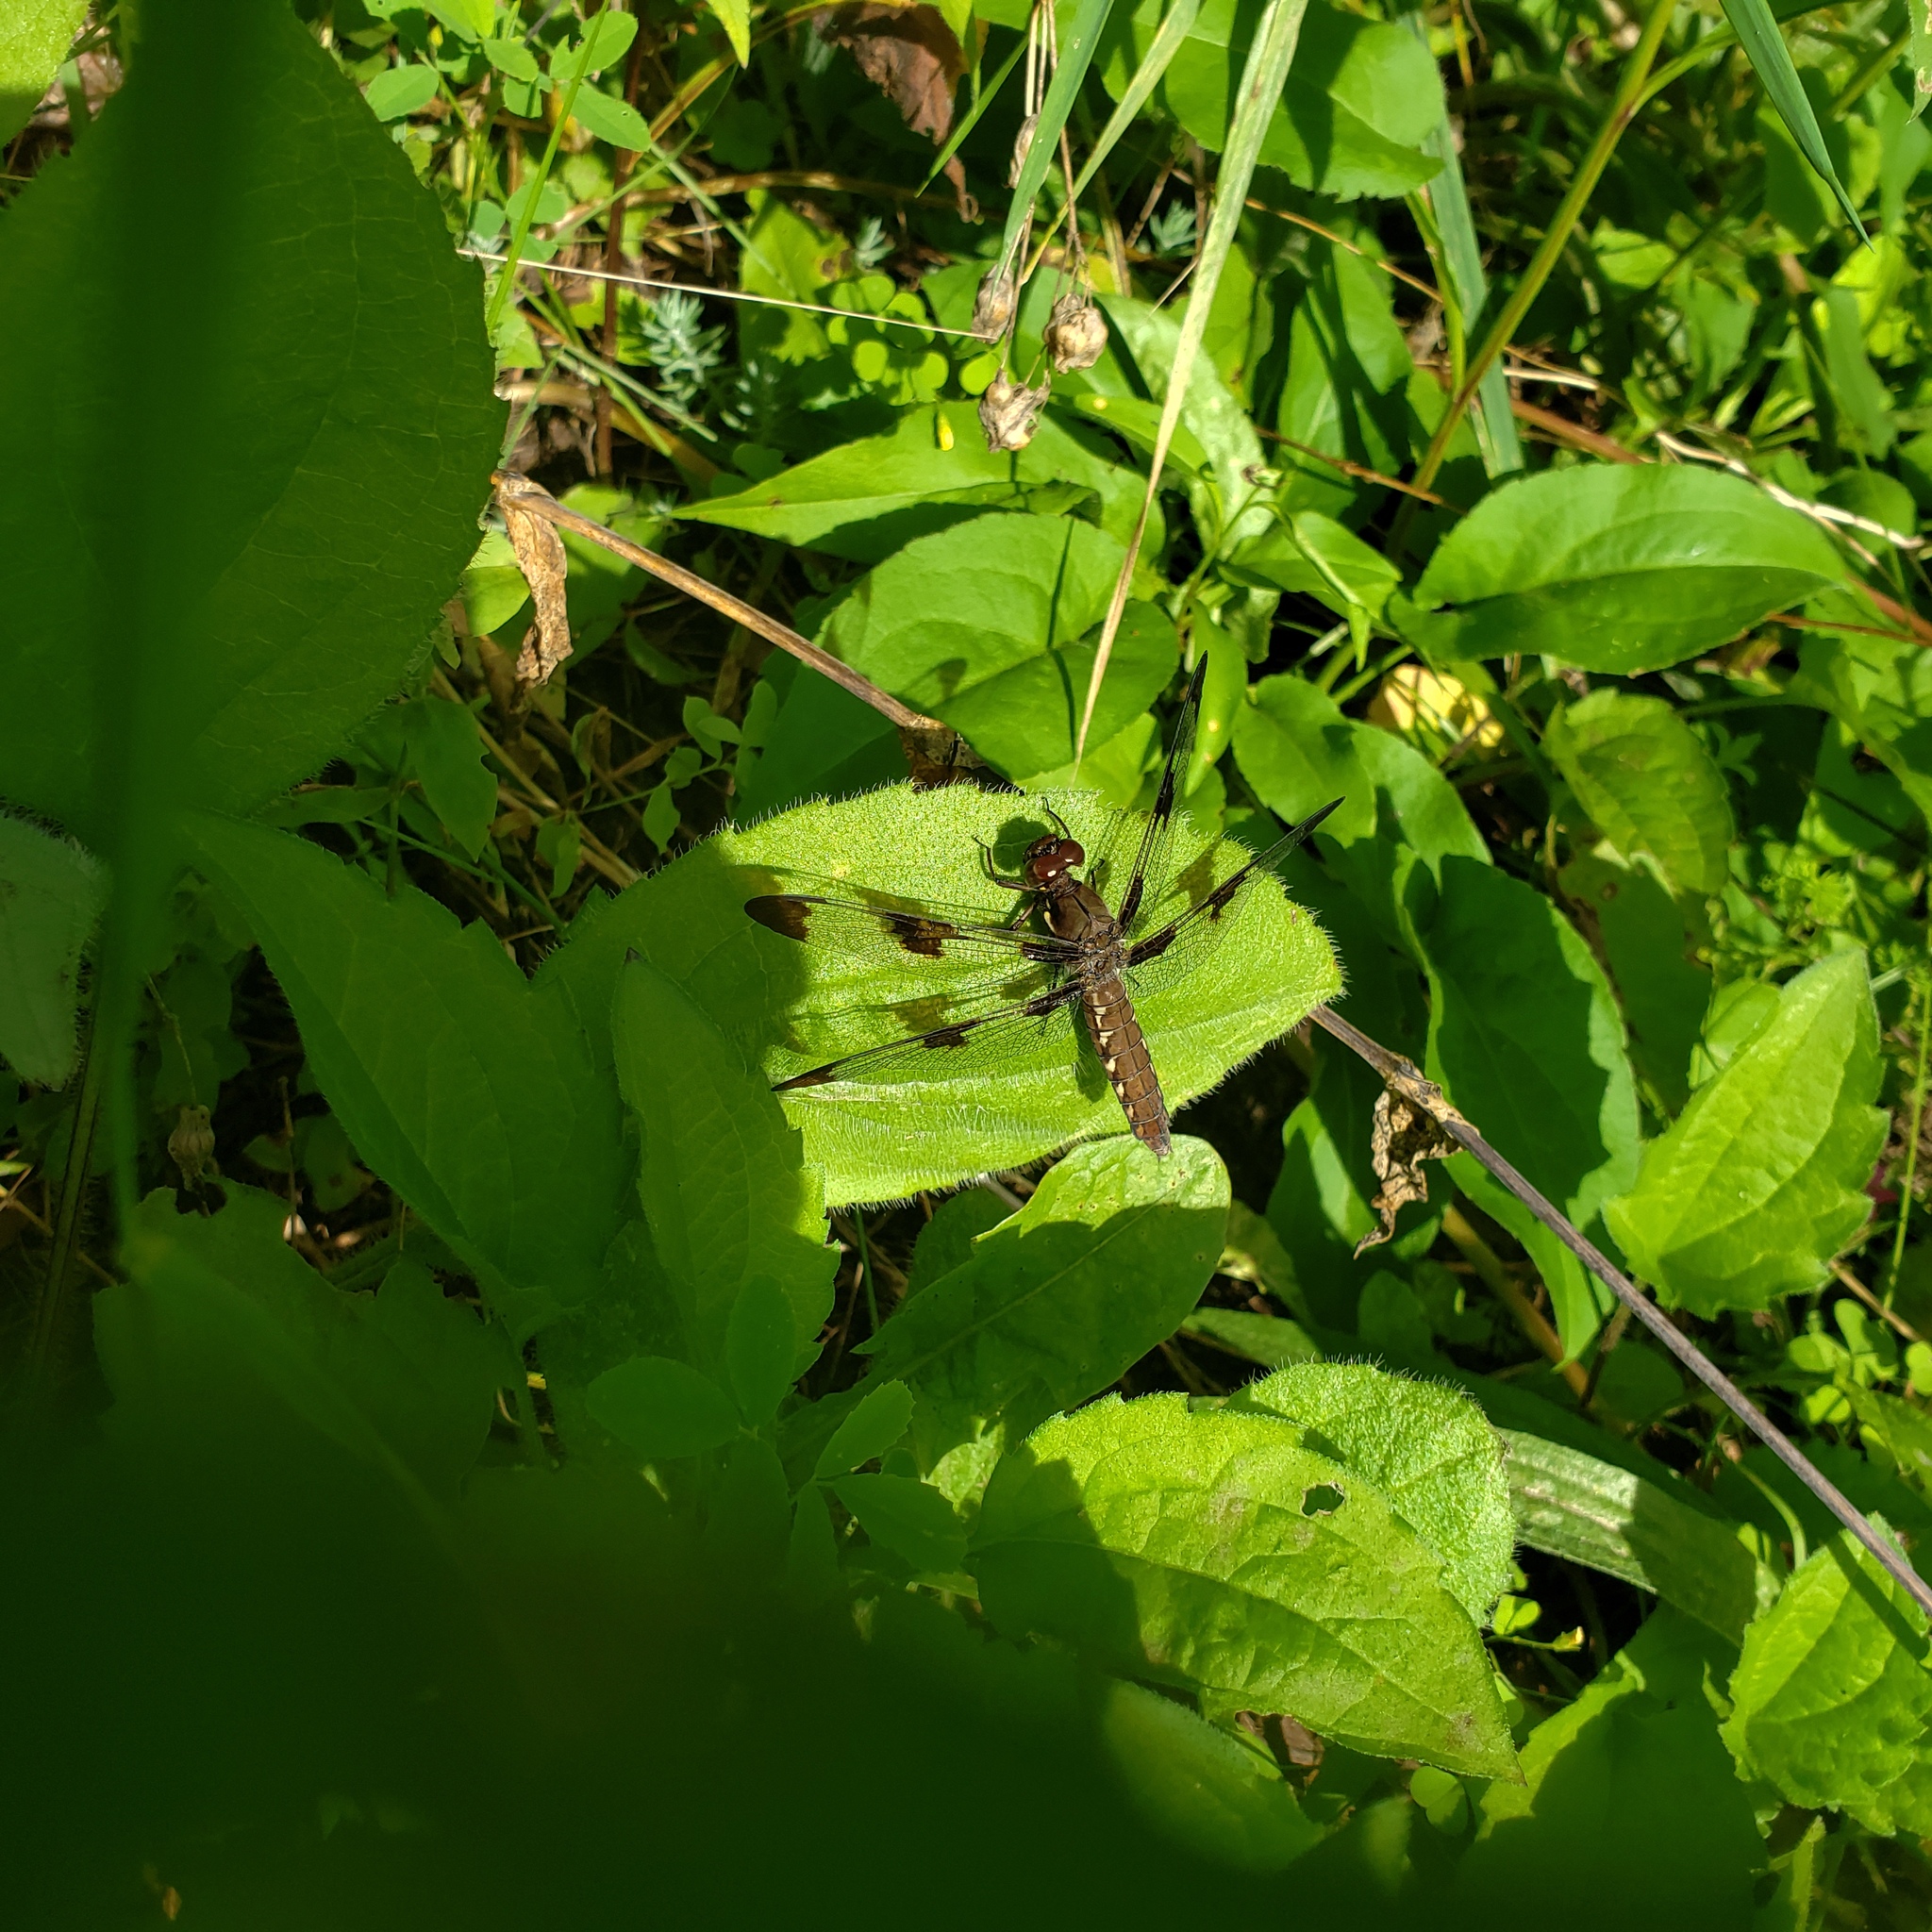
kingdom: Animalia
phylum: Arthropoda
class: Insecta
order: Odonata
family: Libellulidae
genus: Plathemis
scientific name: Plathemis lydia
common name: Common whitetail
